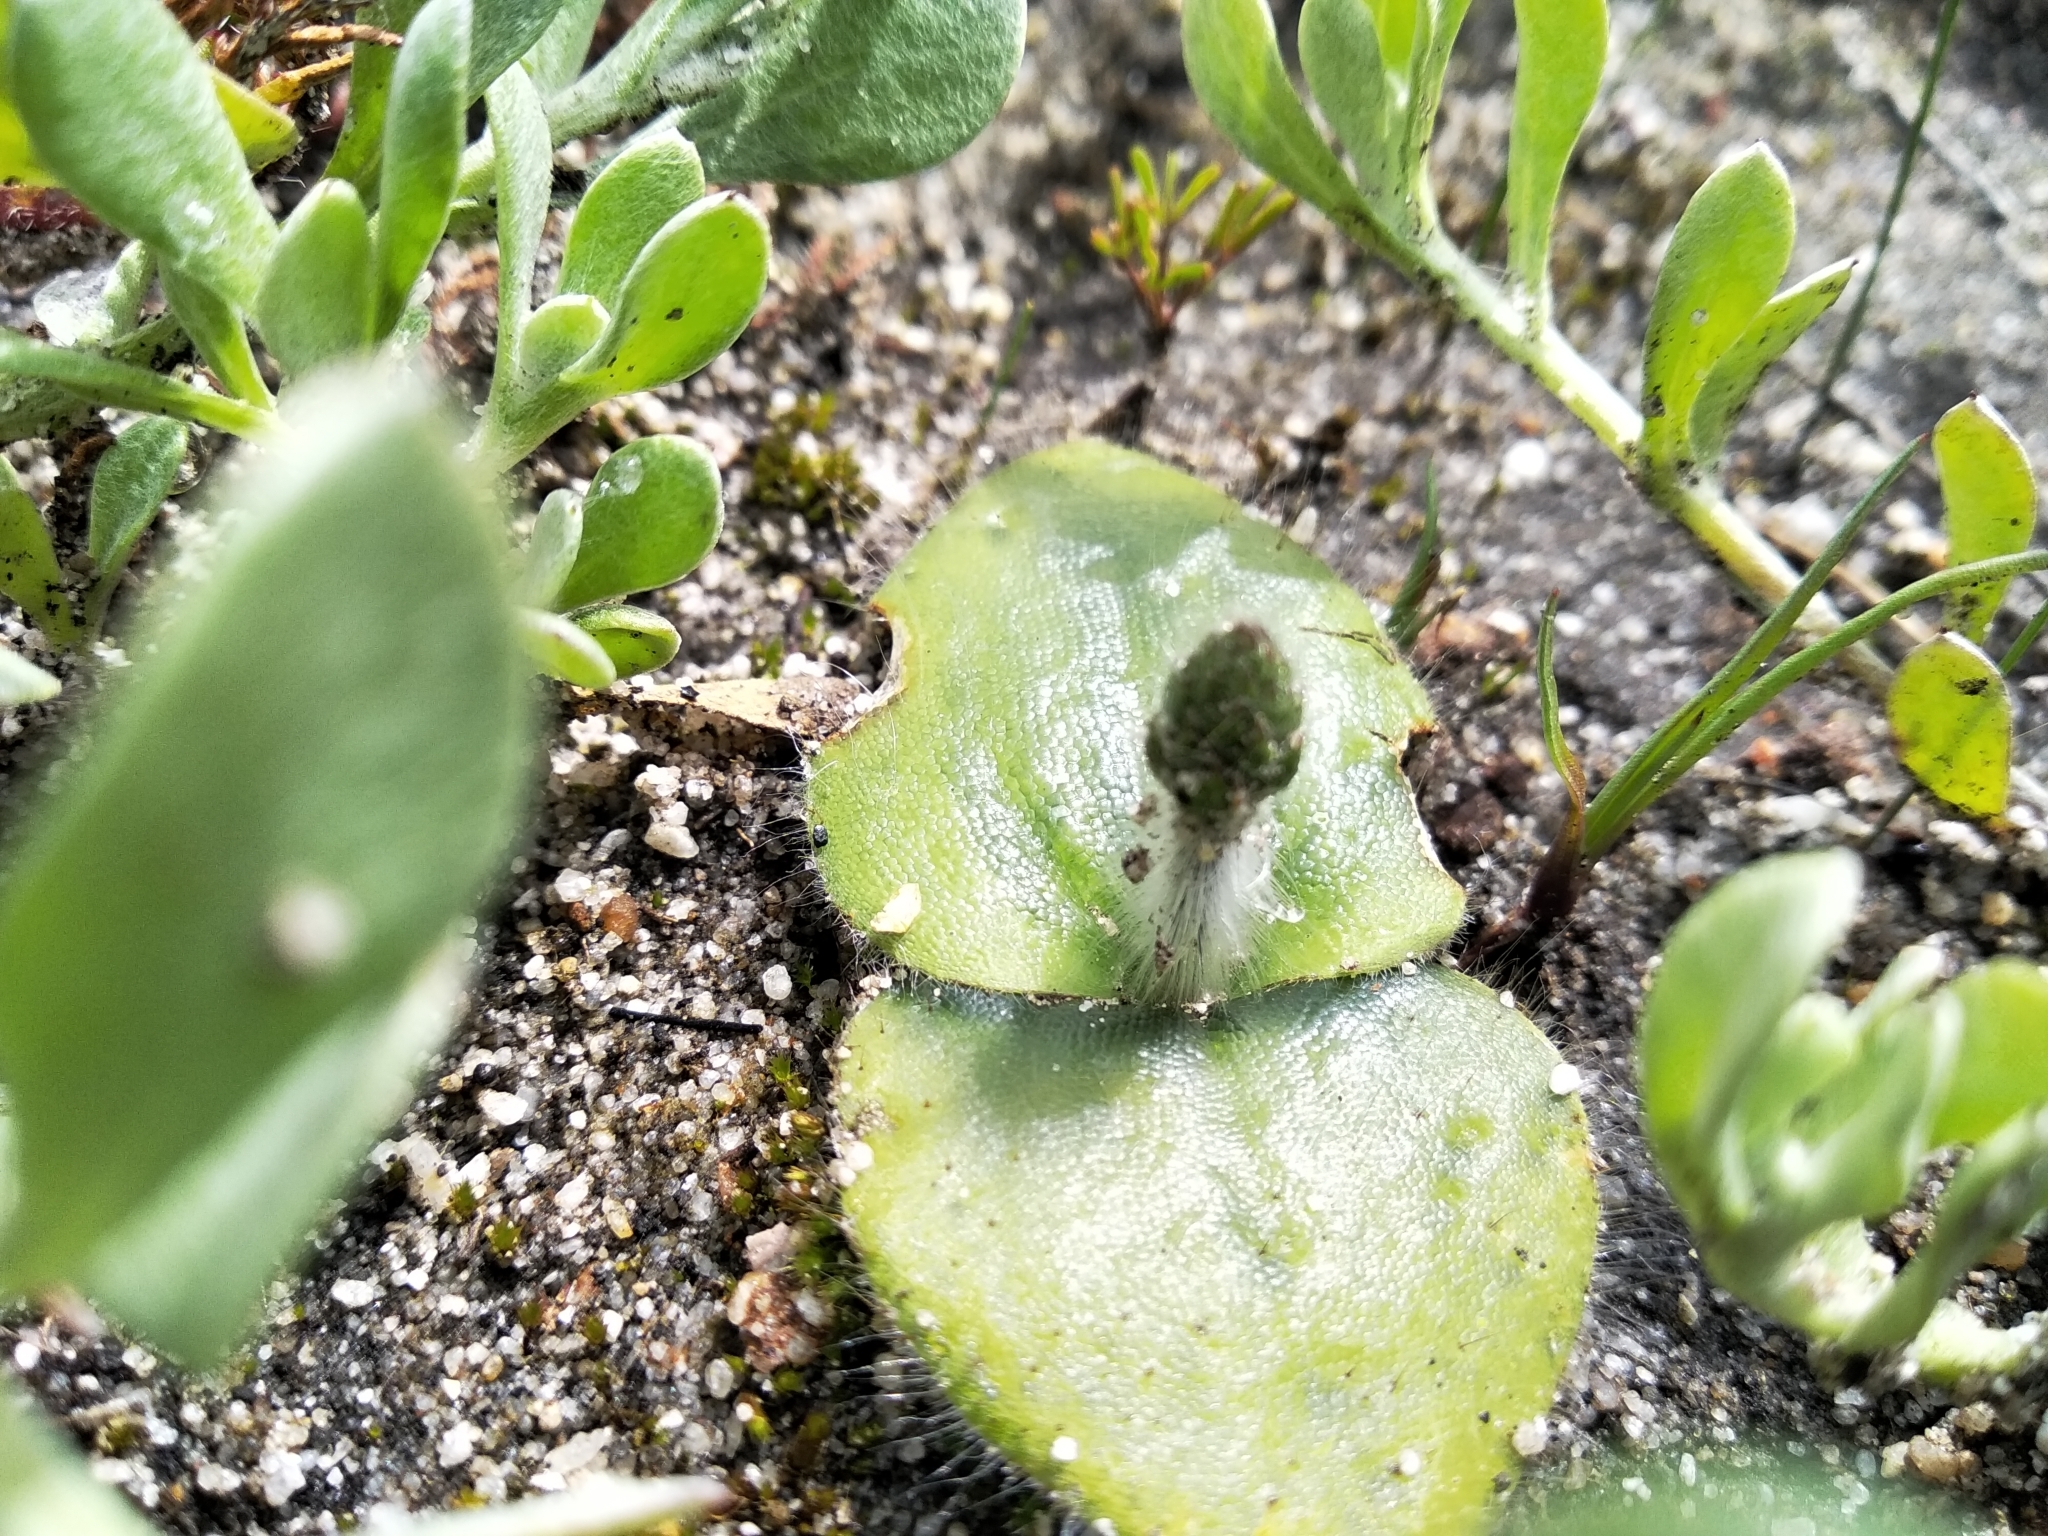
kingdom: Plantae
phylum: Tracheophyta
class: Liliopsida
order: Asparagales
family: Orchidaceae
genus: Holothrix
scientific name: Holothrix villosa
